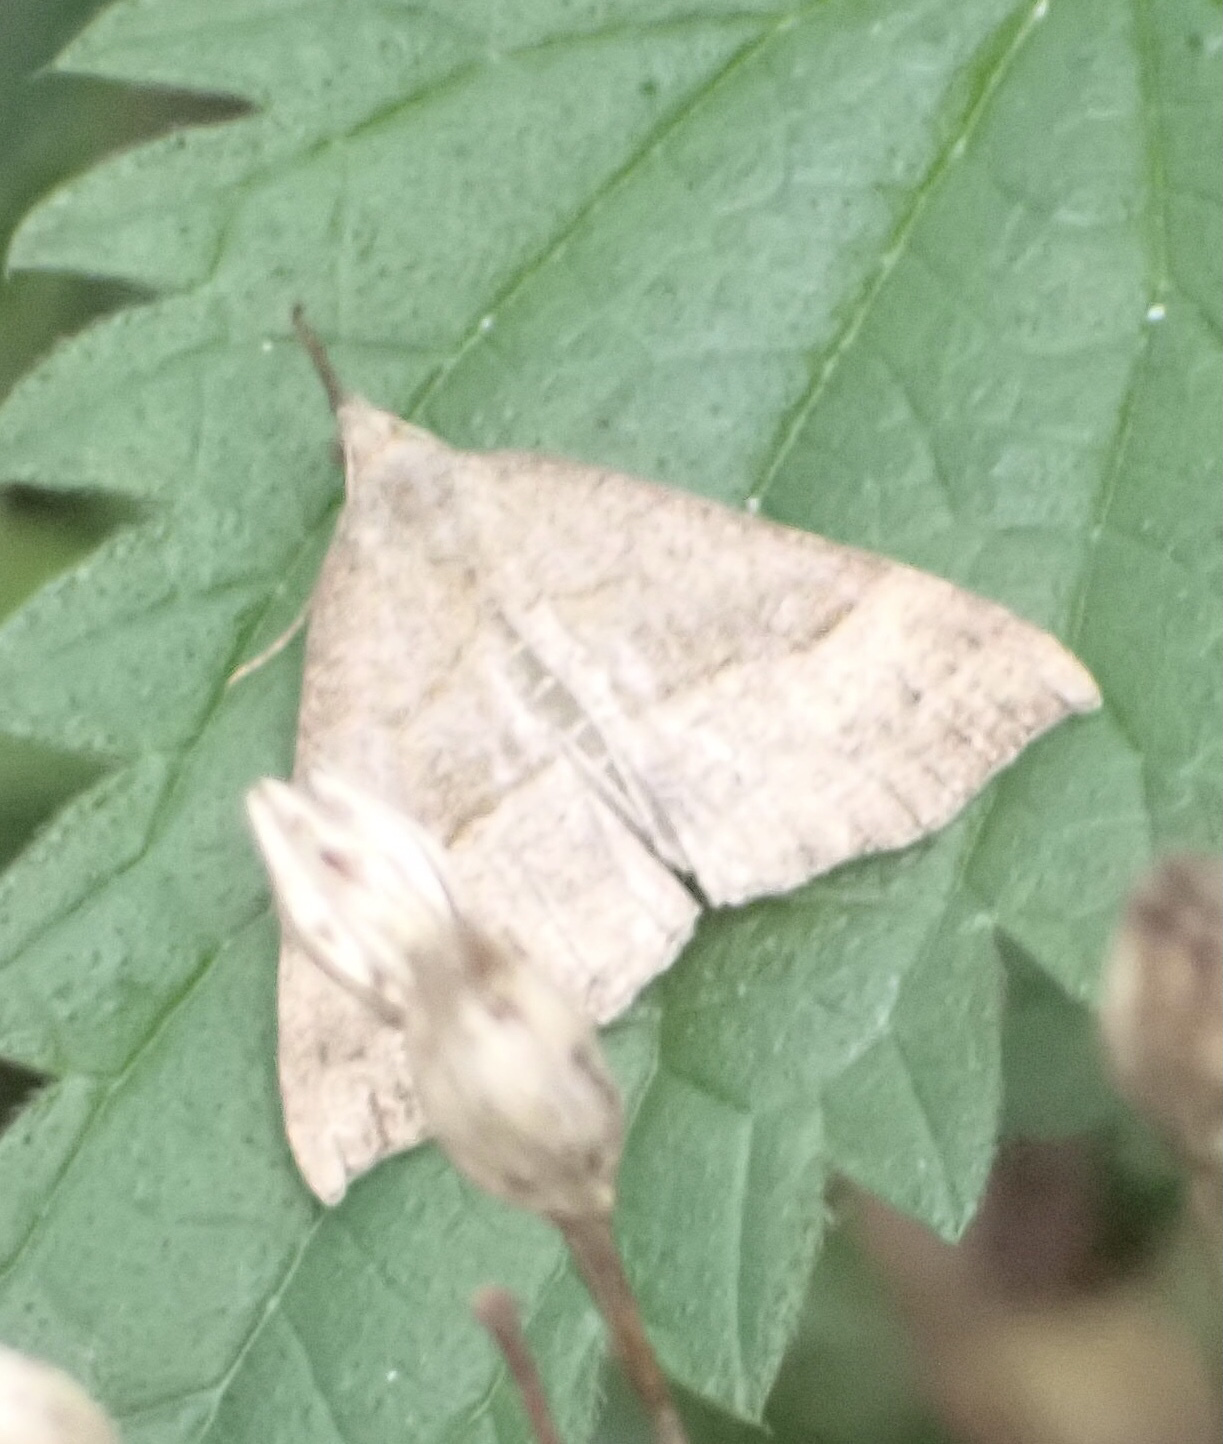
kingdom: Animalia
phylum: Arthropoda
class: Insecta
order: Lepidoptera
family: Erebidae
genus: Hypena
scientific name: Hypena proboscidalis
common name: Snout
